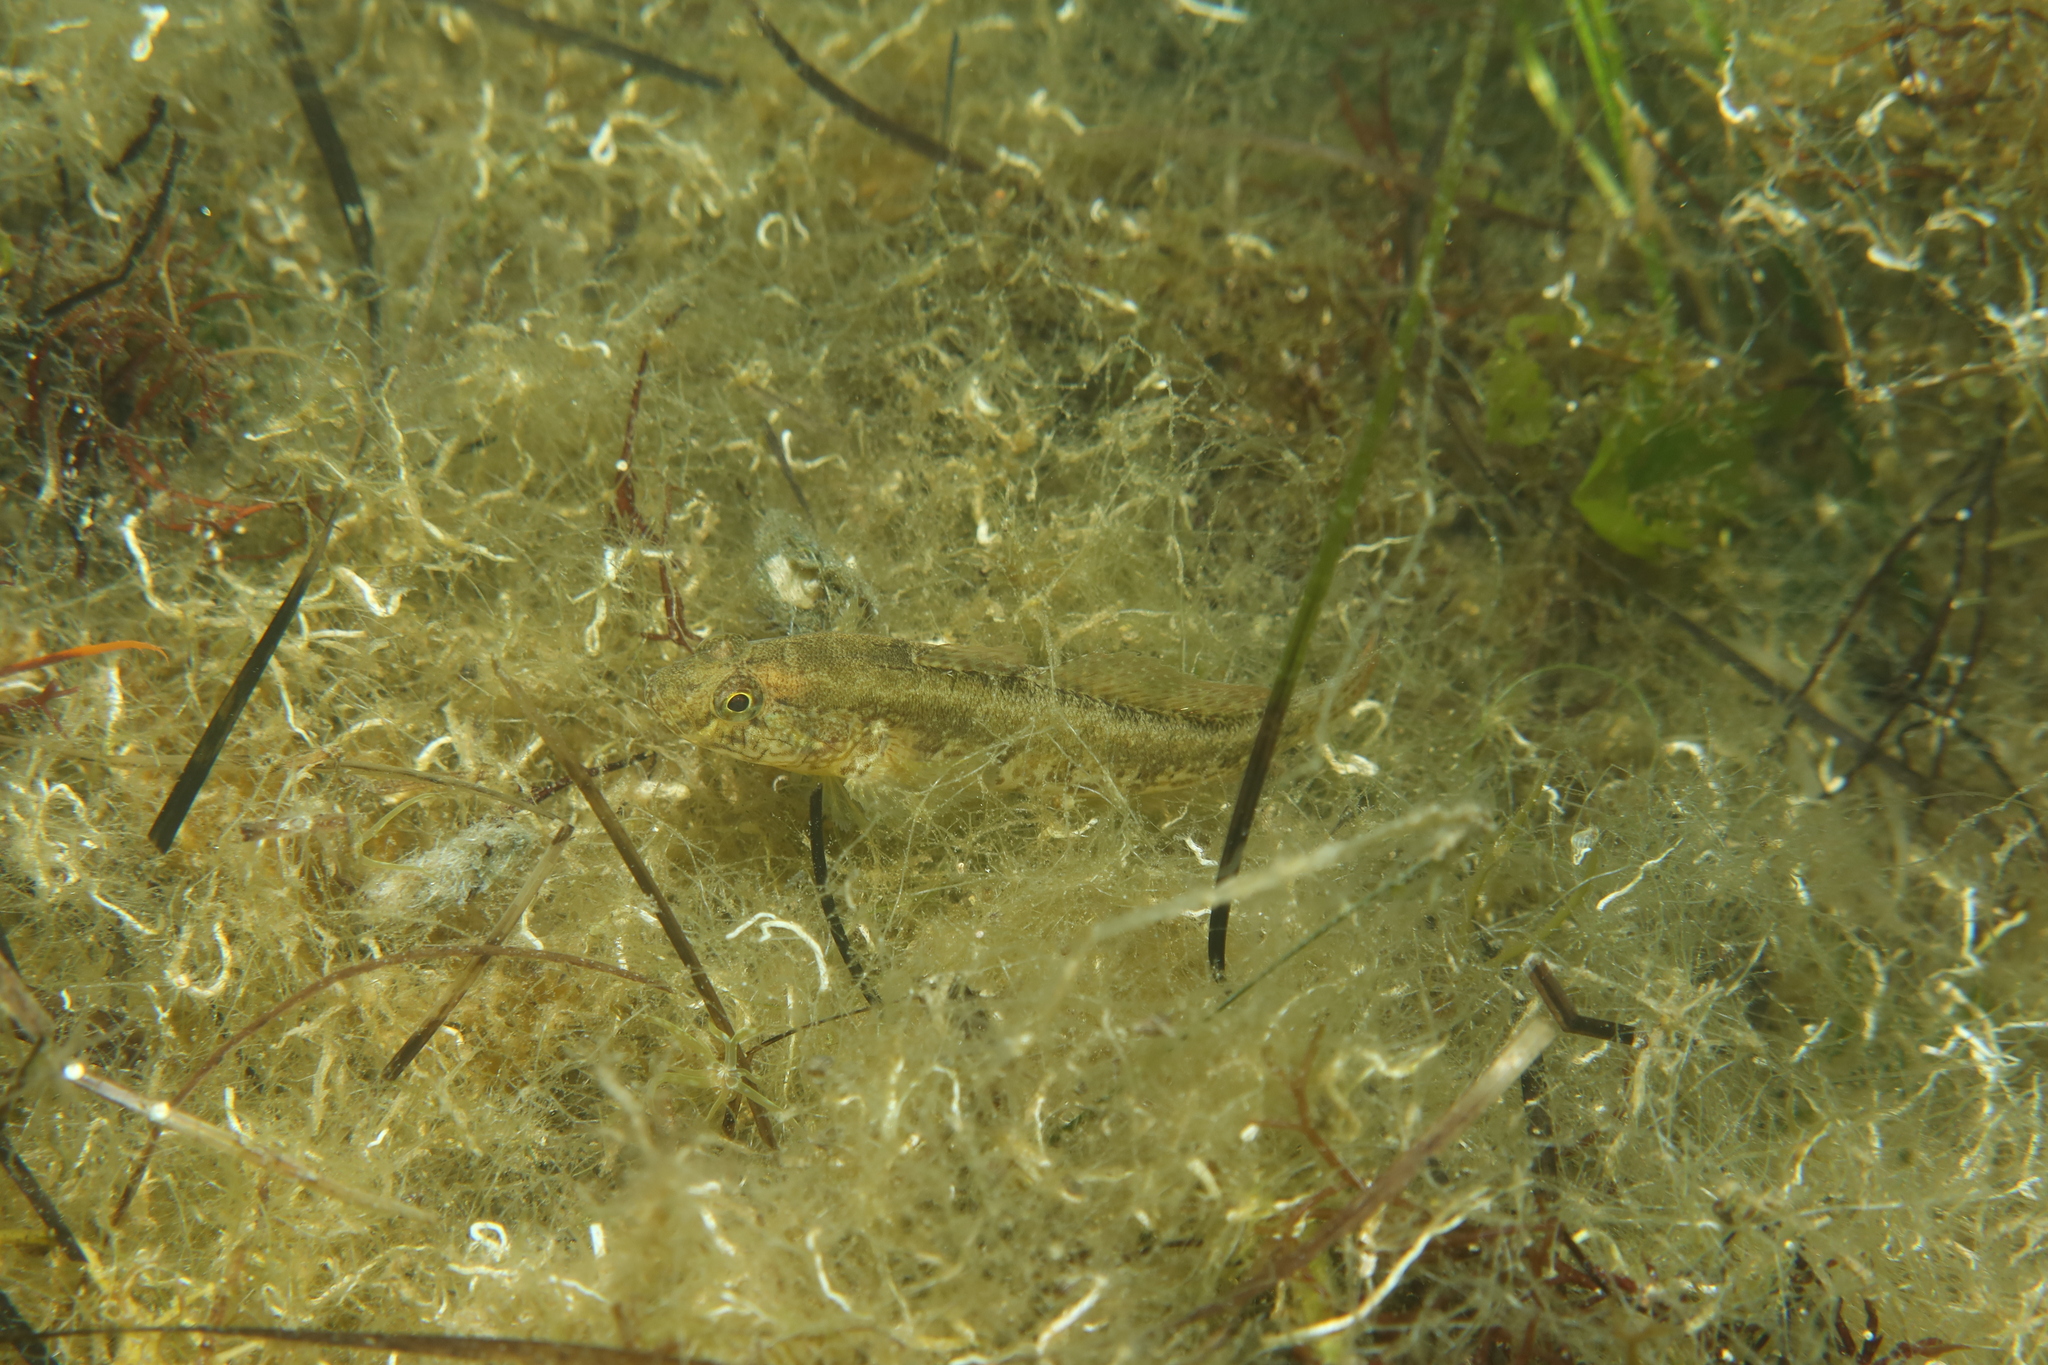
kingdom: Animalia
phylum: Chordata
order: Perciformes
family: Gobiidae
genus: Zosterisessor
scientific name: Zosterisessor ophiocephalus
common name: Grass goby
